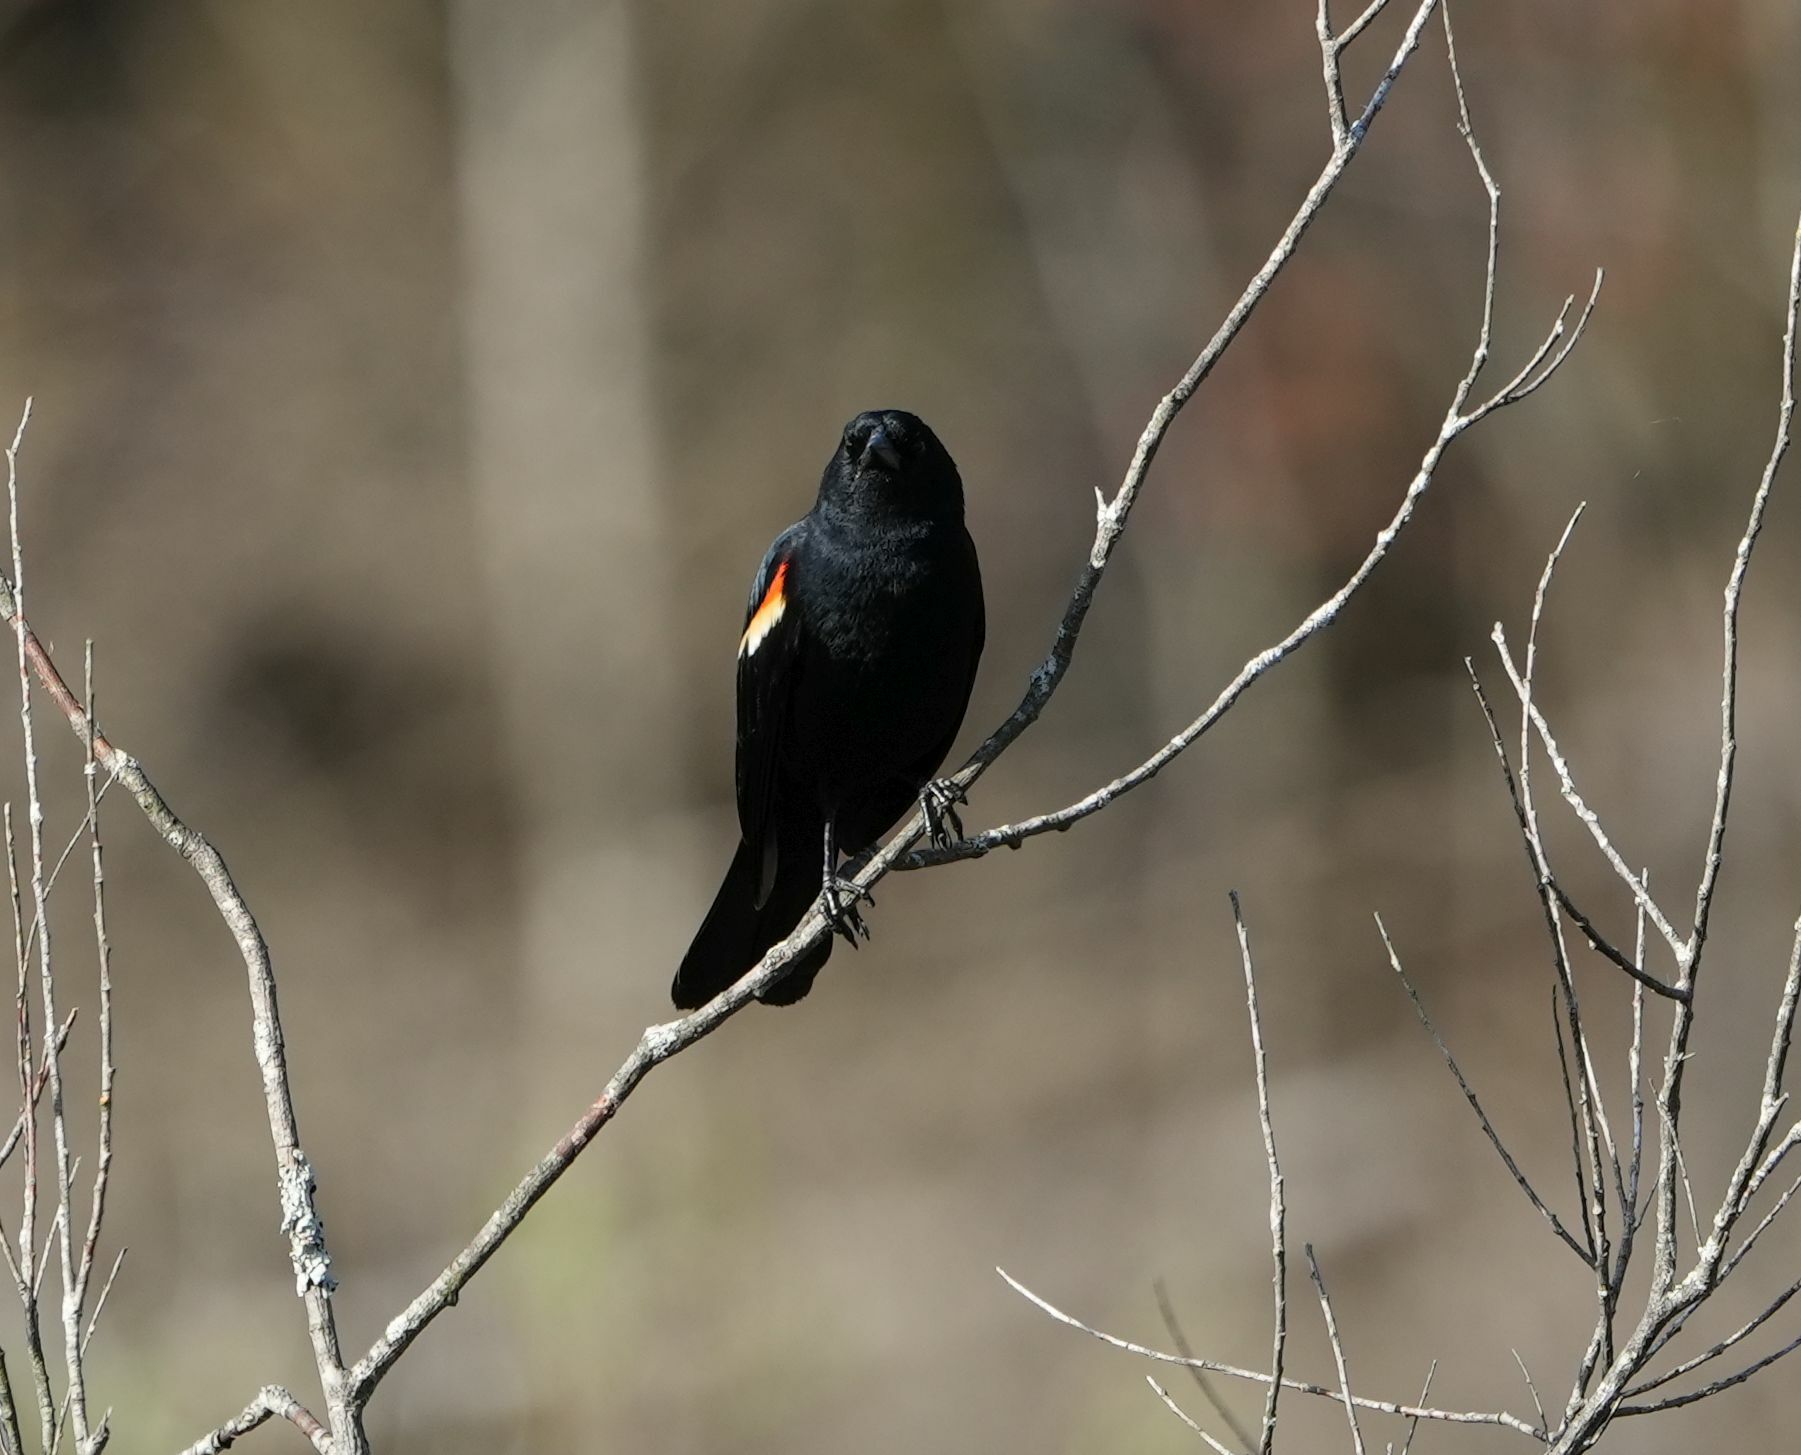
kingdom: Animalia
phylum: Chordata
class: Aves
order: Passeriformes
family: Icteridae
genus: Agelaius
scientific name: Agelaius phoeniceus
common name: Red-winged blackbird
